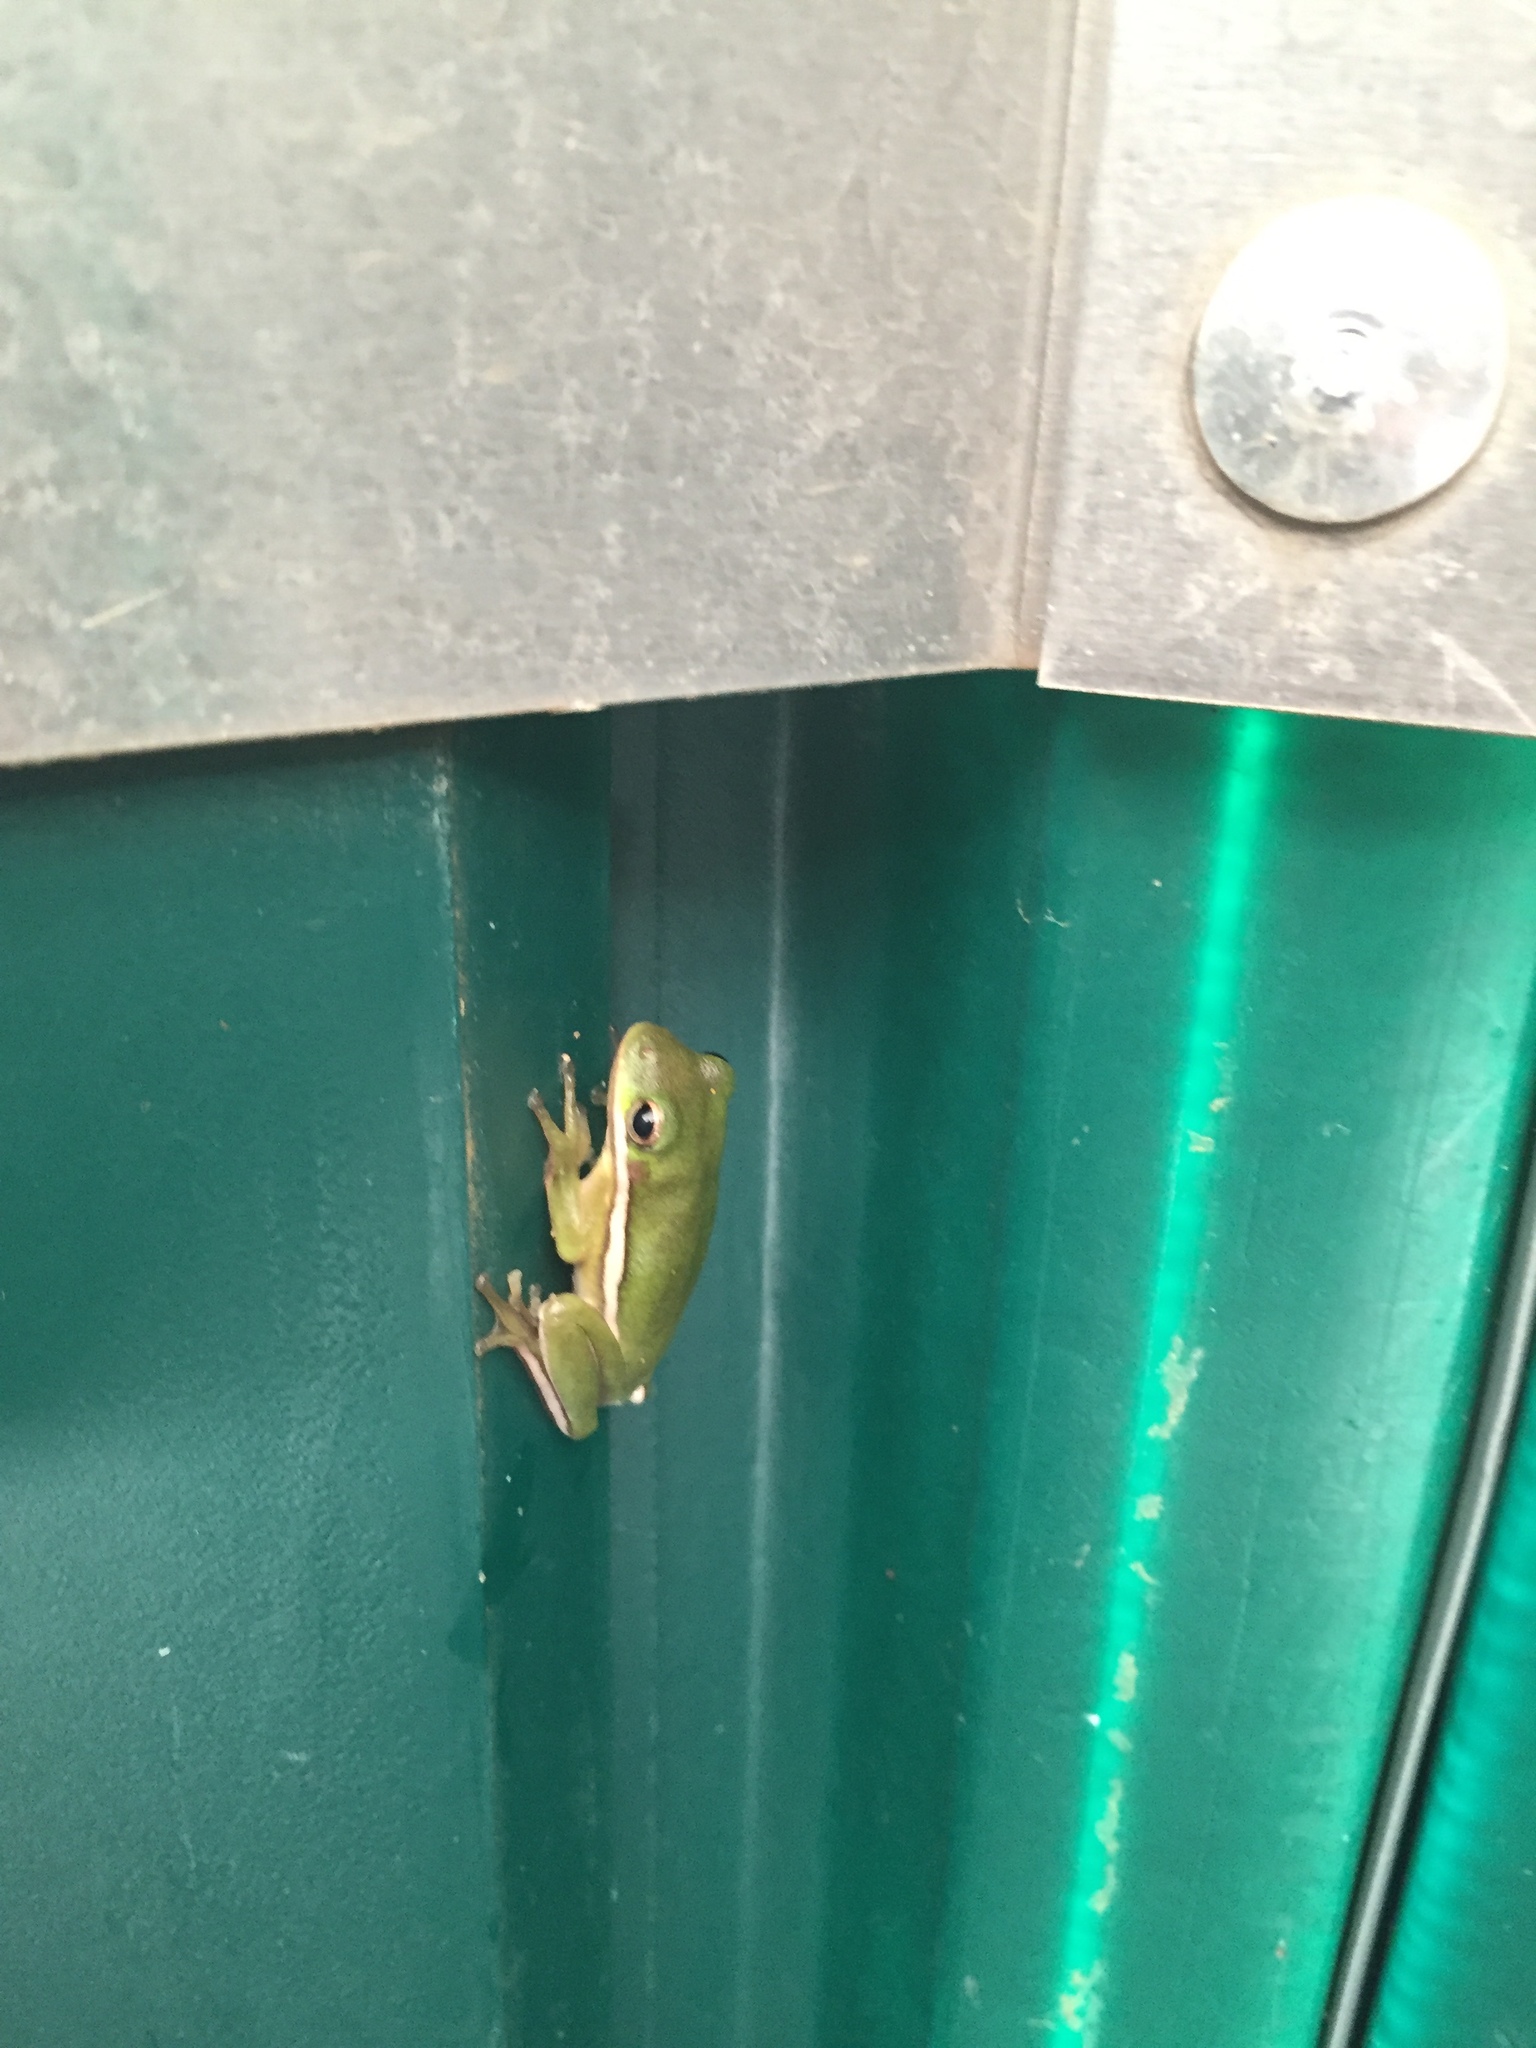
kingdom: Animalia
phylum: Chordata
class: Amphibia
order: Anura
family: Hylidae
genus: Dryophytes
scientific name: Dryophytes cinereus
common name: Green treefrog
